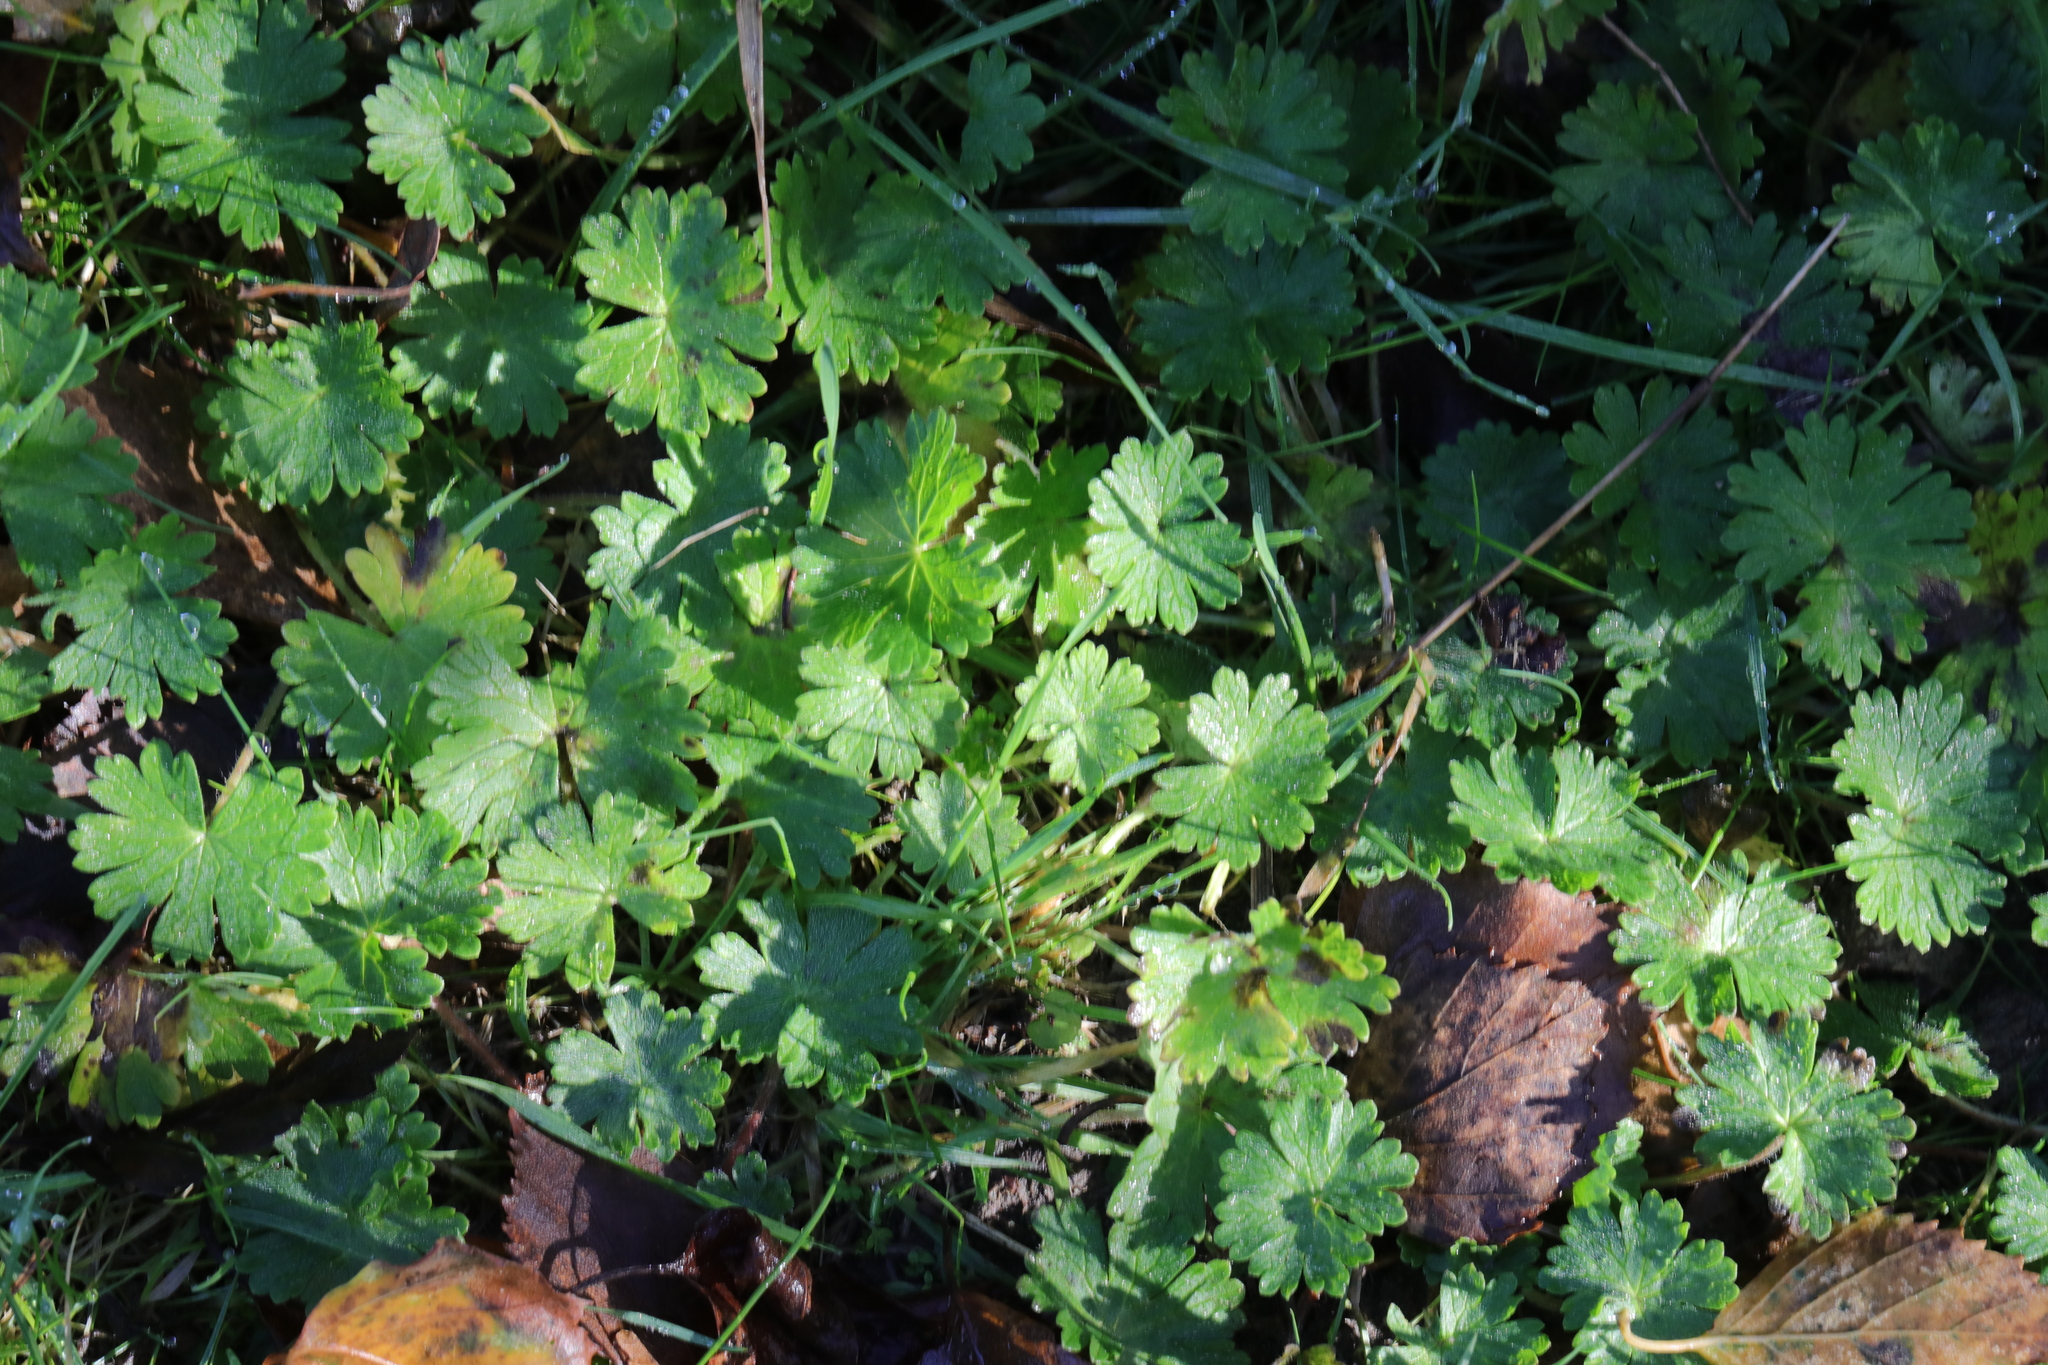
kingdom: Plantae
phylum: Tracheophyta
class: Magnoliopsida
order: Geraniales
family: Geraniaceae
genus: Geranium
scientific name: Geranium molle
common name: Dove's-foot crane's-bill
